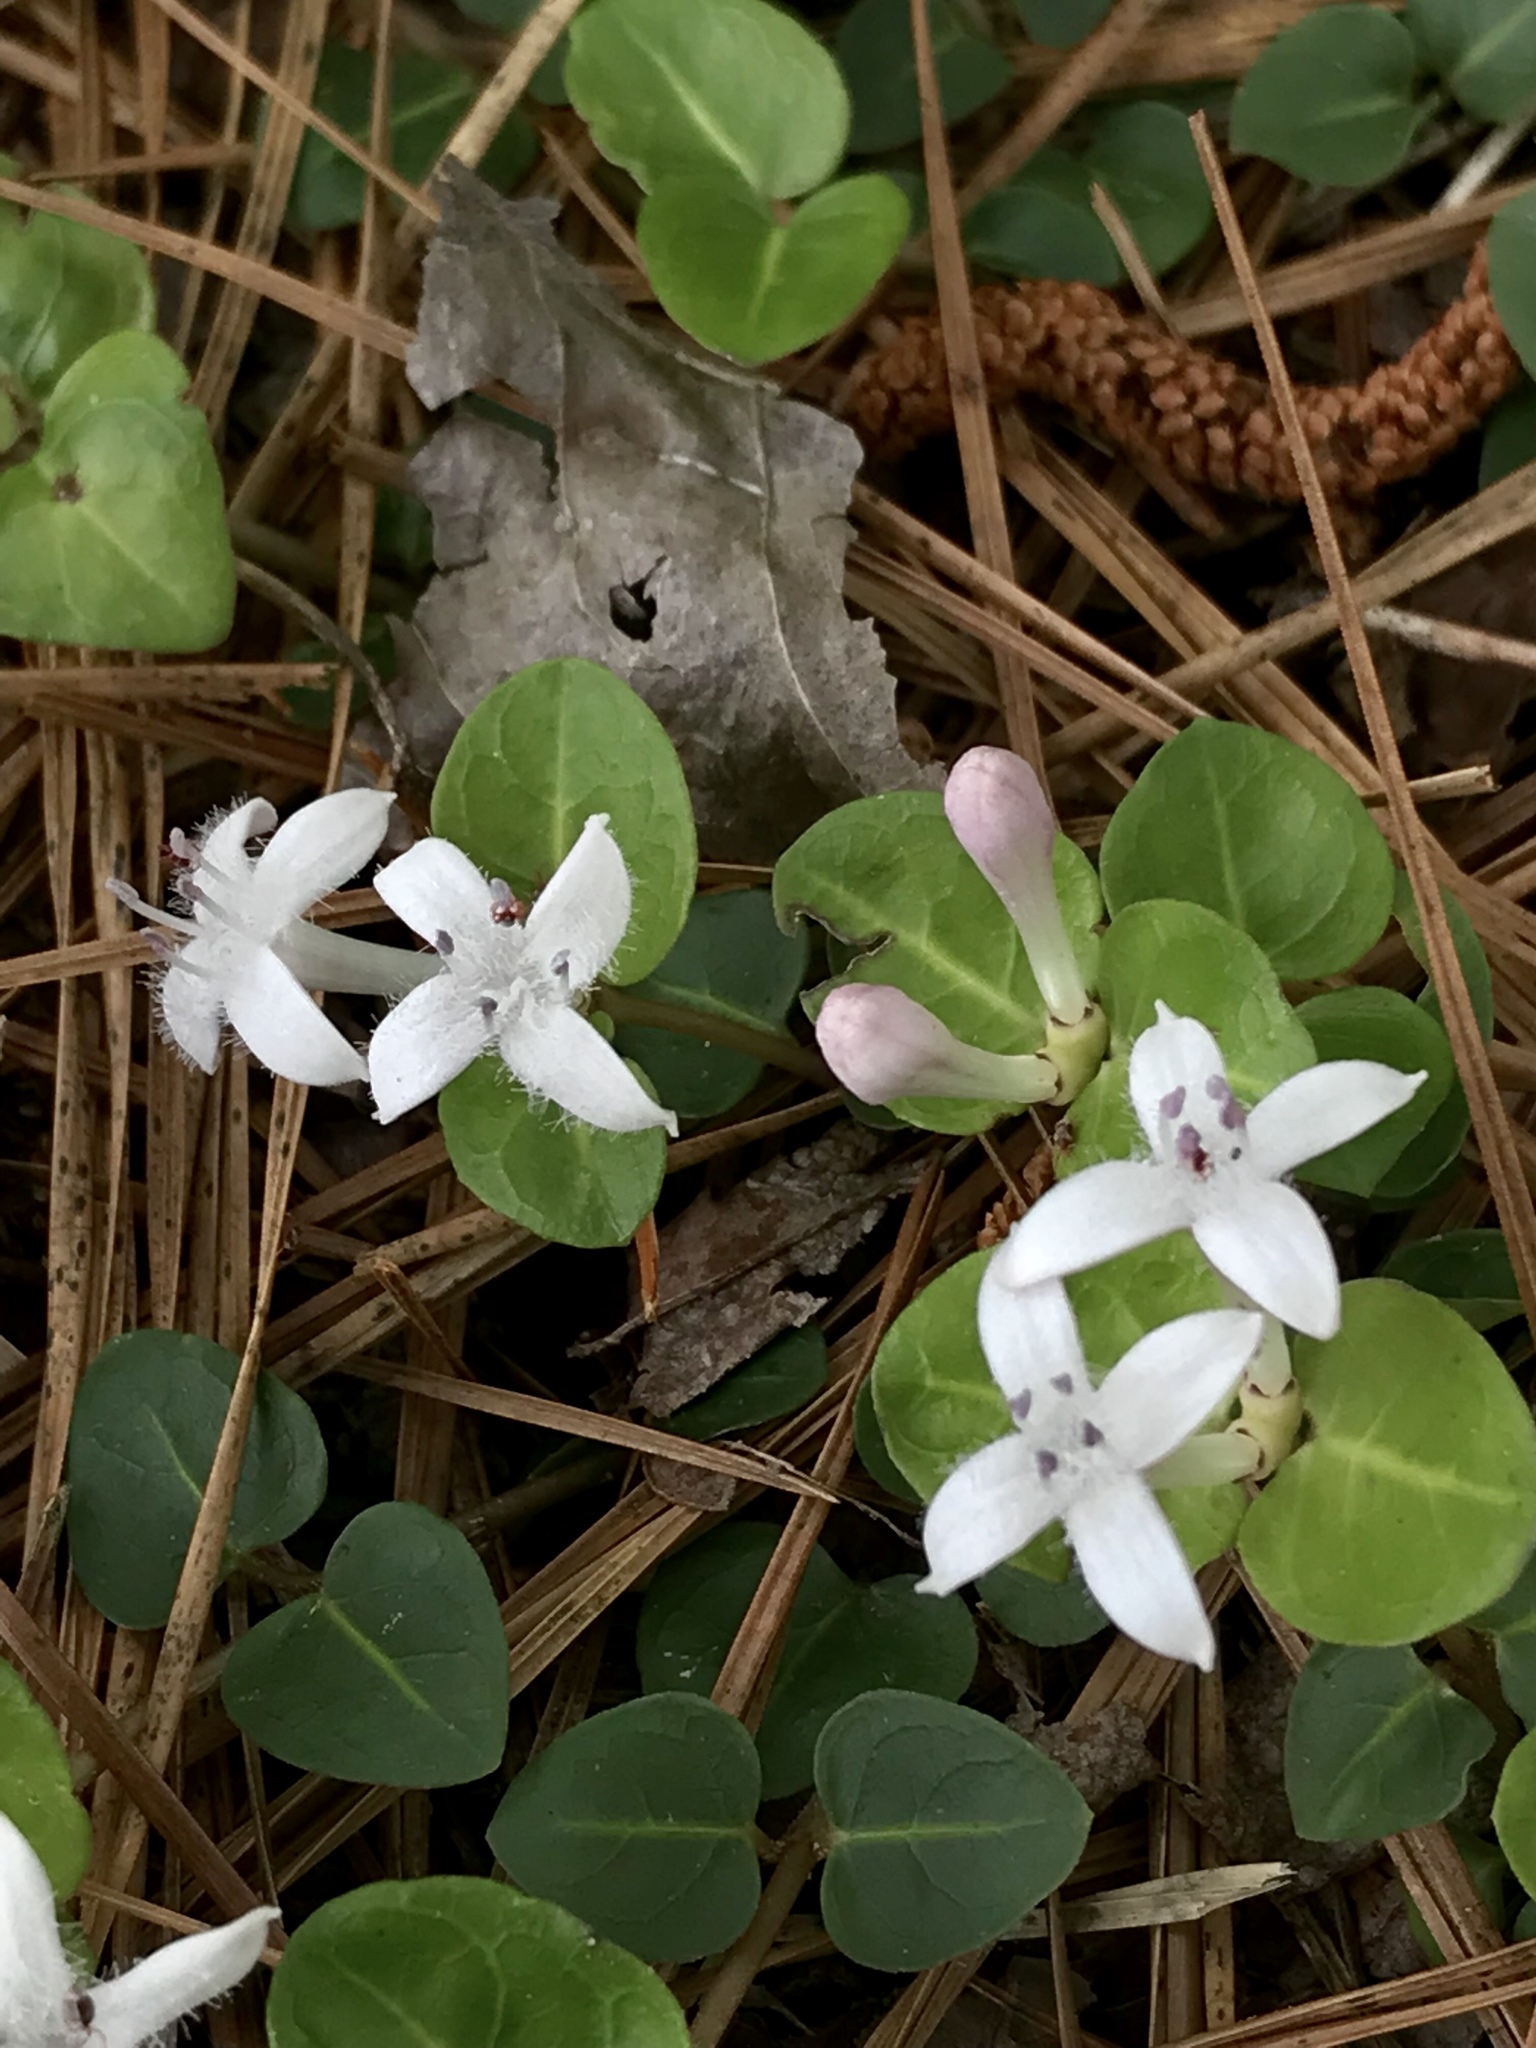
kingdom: Plantae
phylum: Tracheophyta
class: Magnoliopsida
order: Gentianales
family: Rubiaceae
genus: Mitchella
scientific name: Mitchella repens
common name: Partridge-berry
